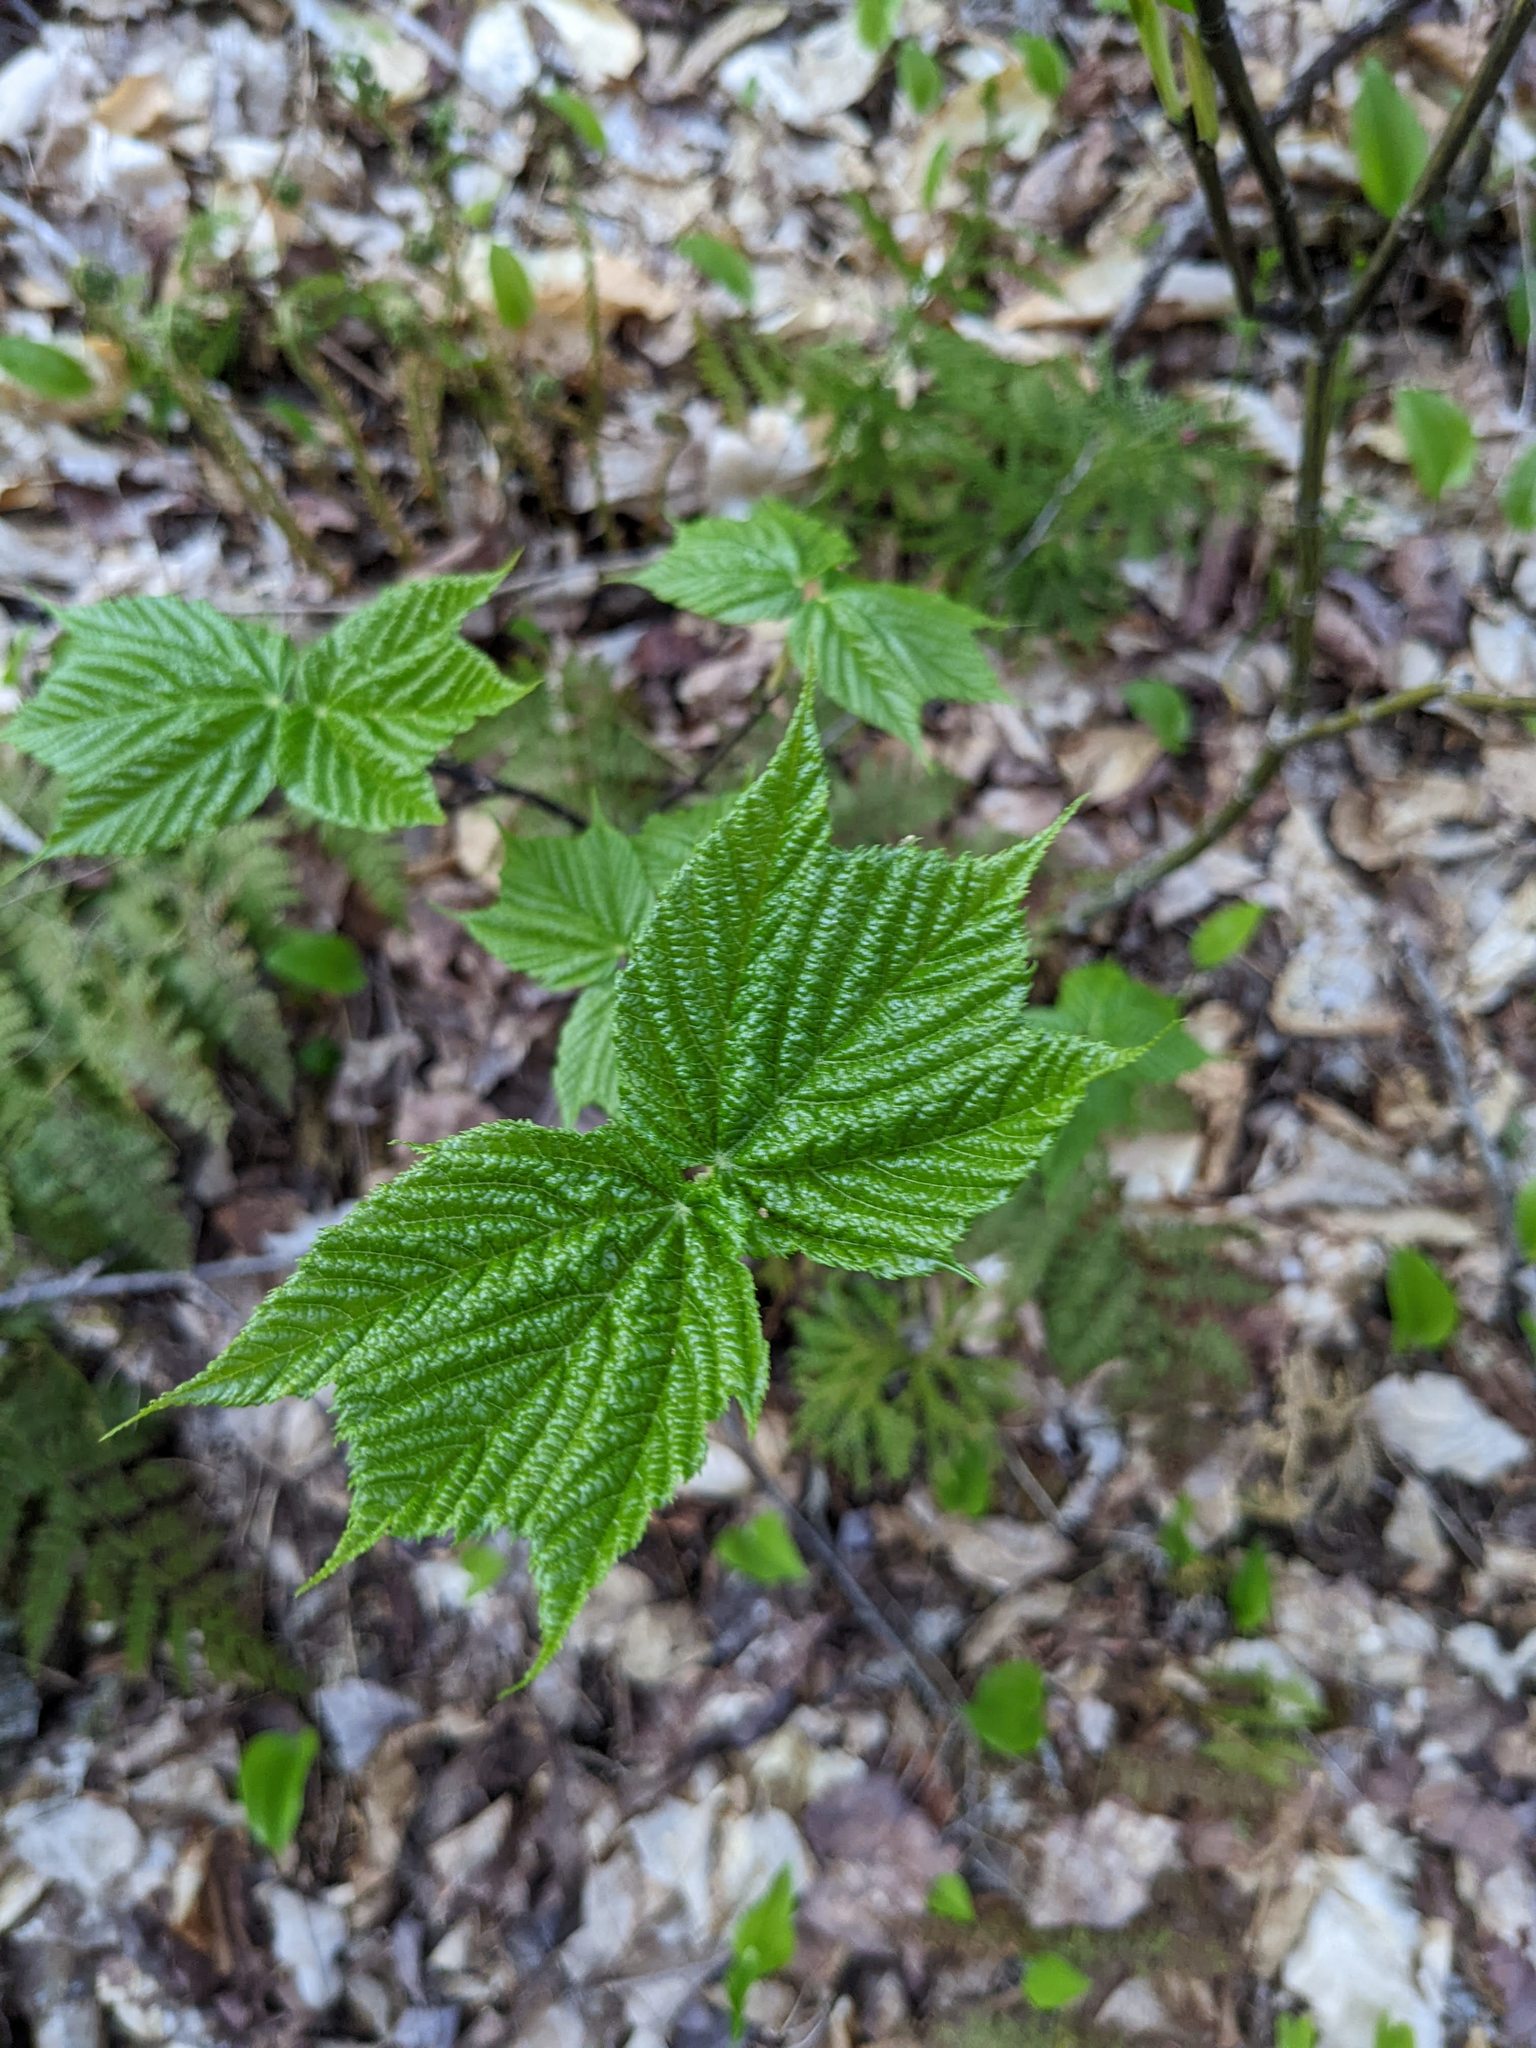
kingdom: Plantae
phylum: Tracheophyta
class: Magnoliopsida
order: Sapindales
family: Sapindaceae
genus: Acer
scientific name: Acer pensylvanicum
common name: Moosewood
